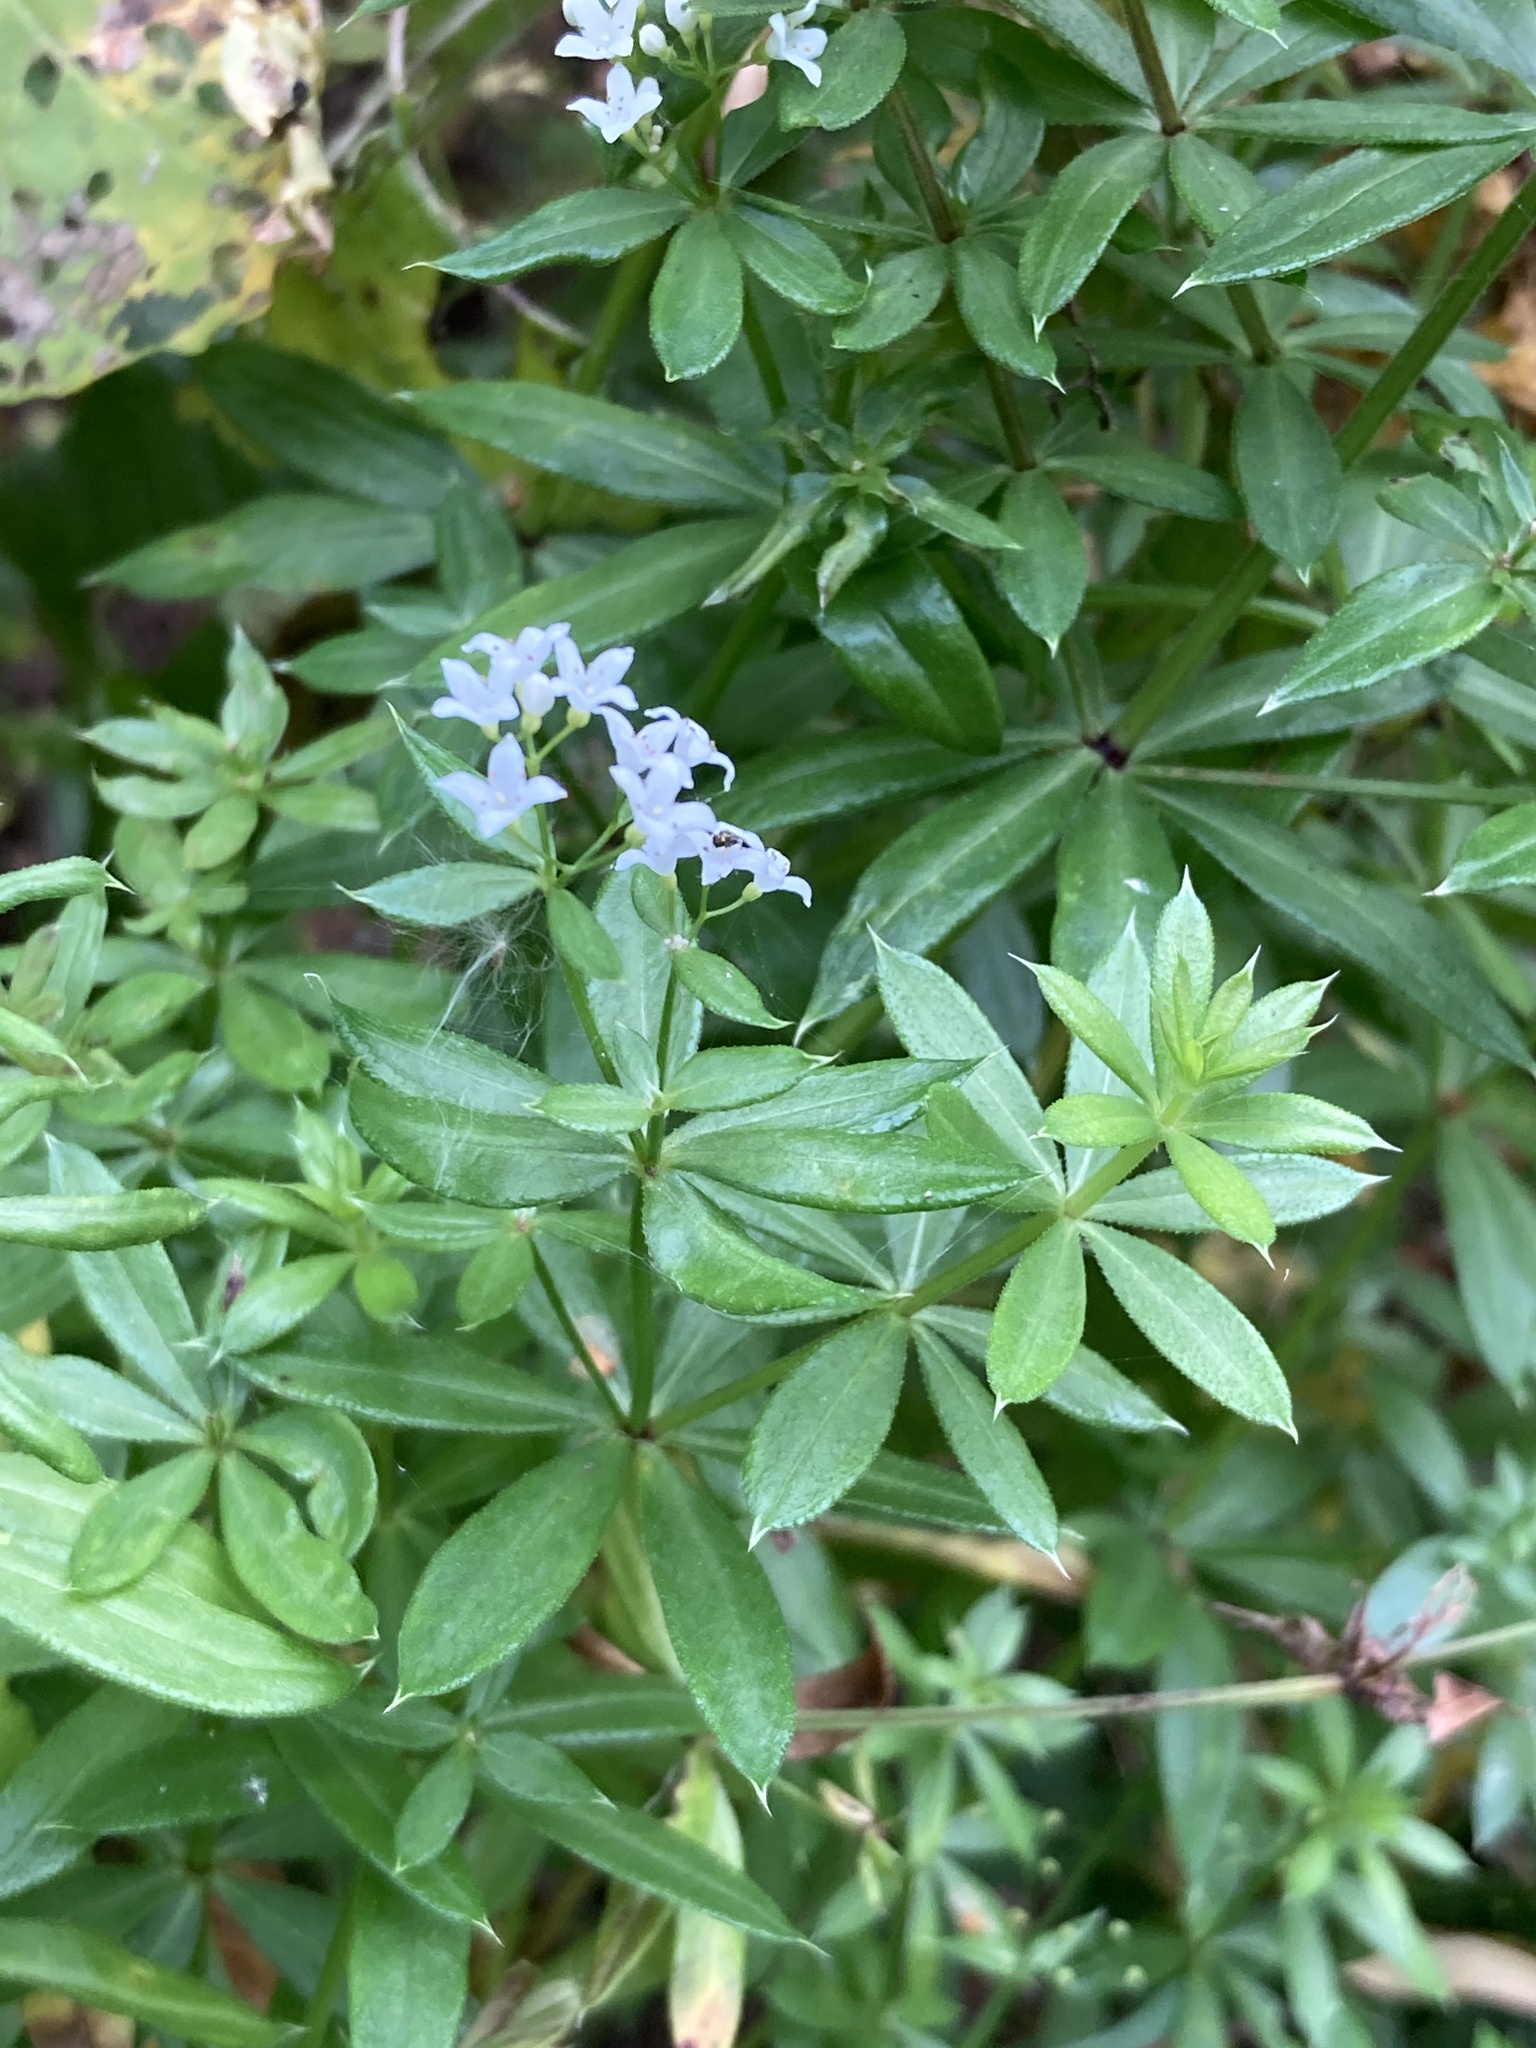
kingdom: Plantae
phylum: Tracheophyta
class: Magnoliopsida
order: Gentianales
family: Rubiaceae
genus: Galium
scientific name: Galium rivale
